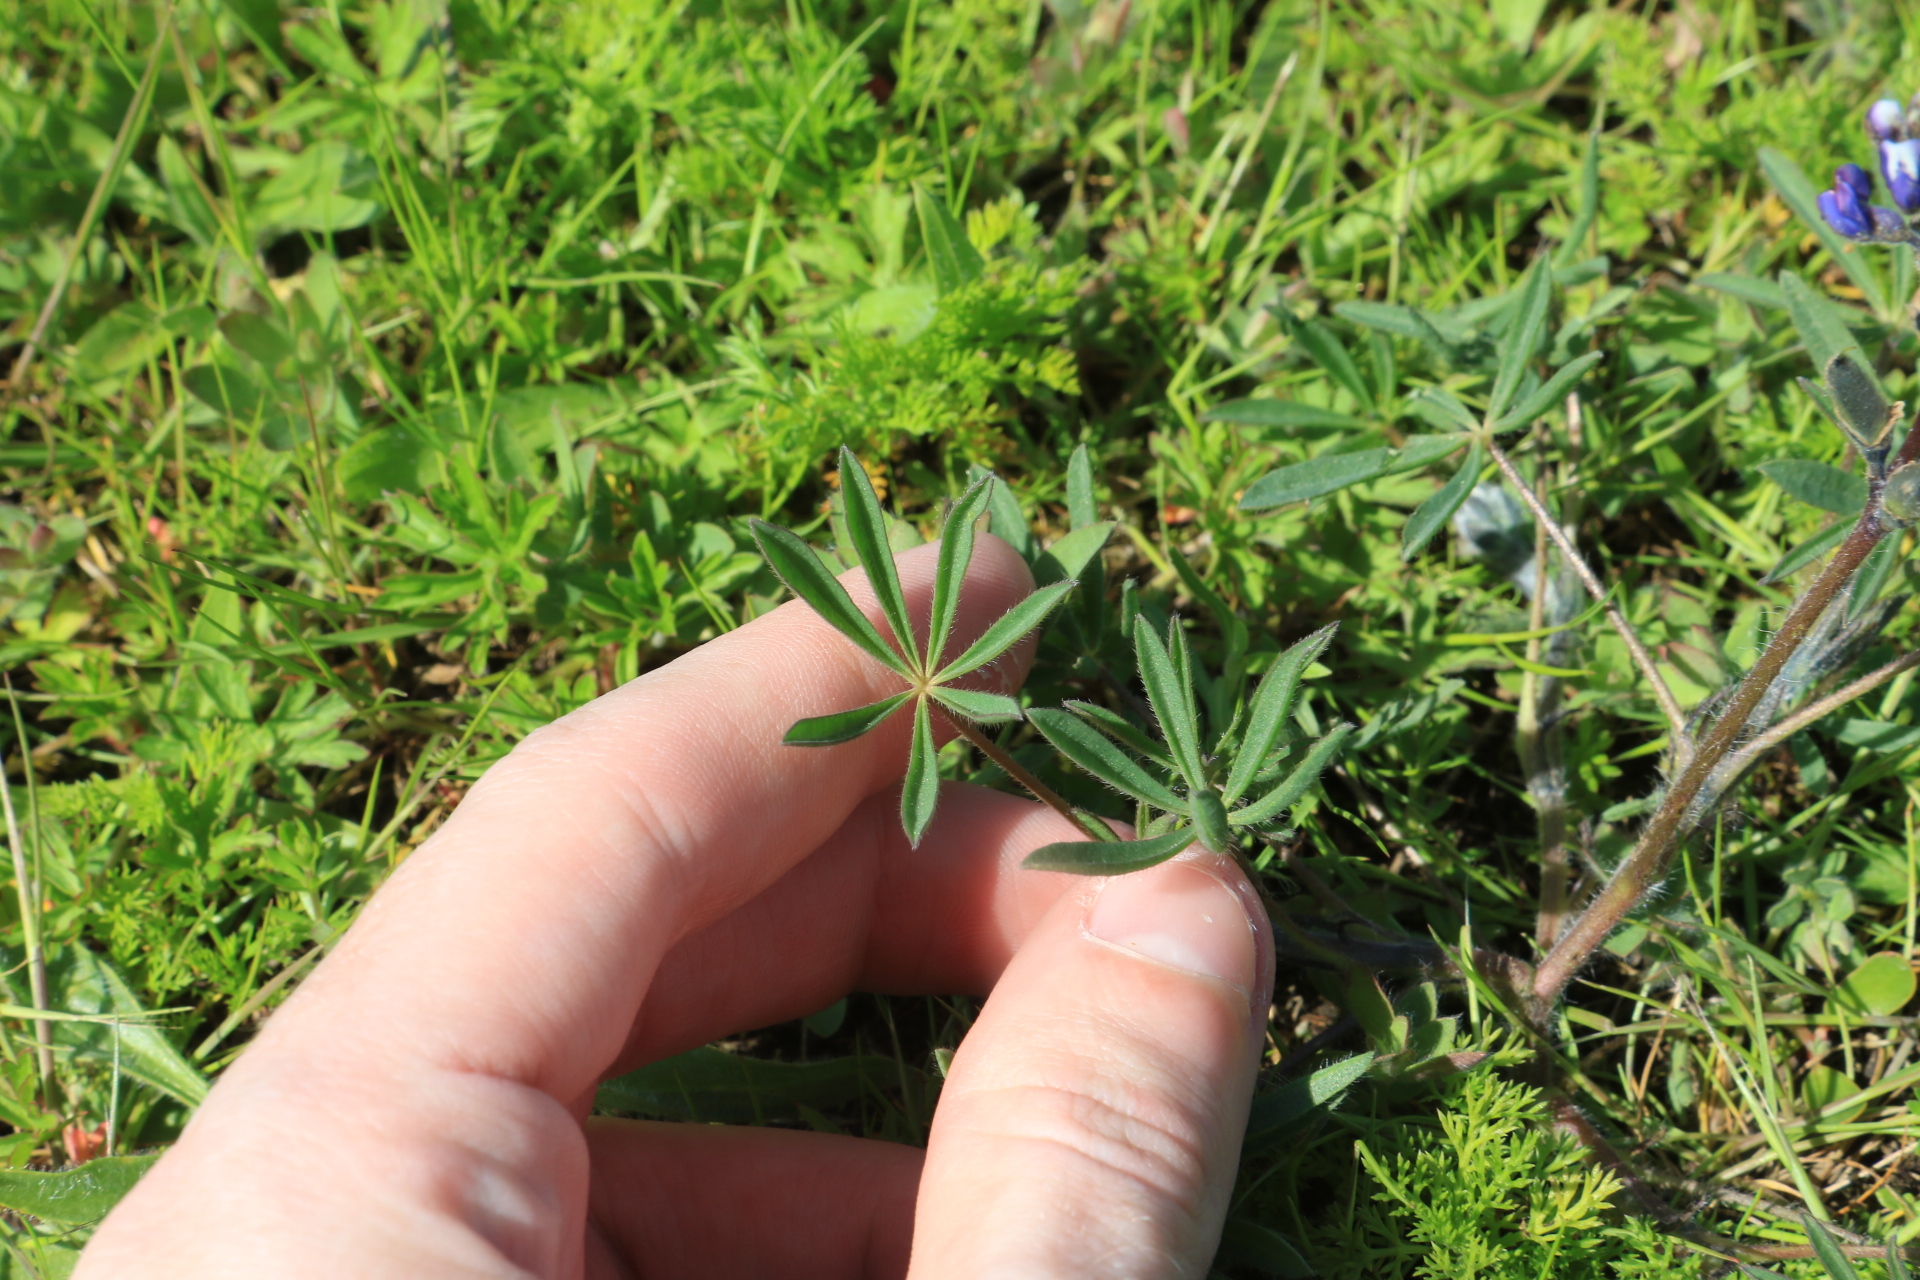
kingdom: Plantae
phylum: Tracheophyta
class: Magnoliopsida
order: Fabales
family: Fabaceae
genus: Lupinus
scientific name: Lupinus bicolor
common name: Miniature lupine
